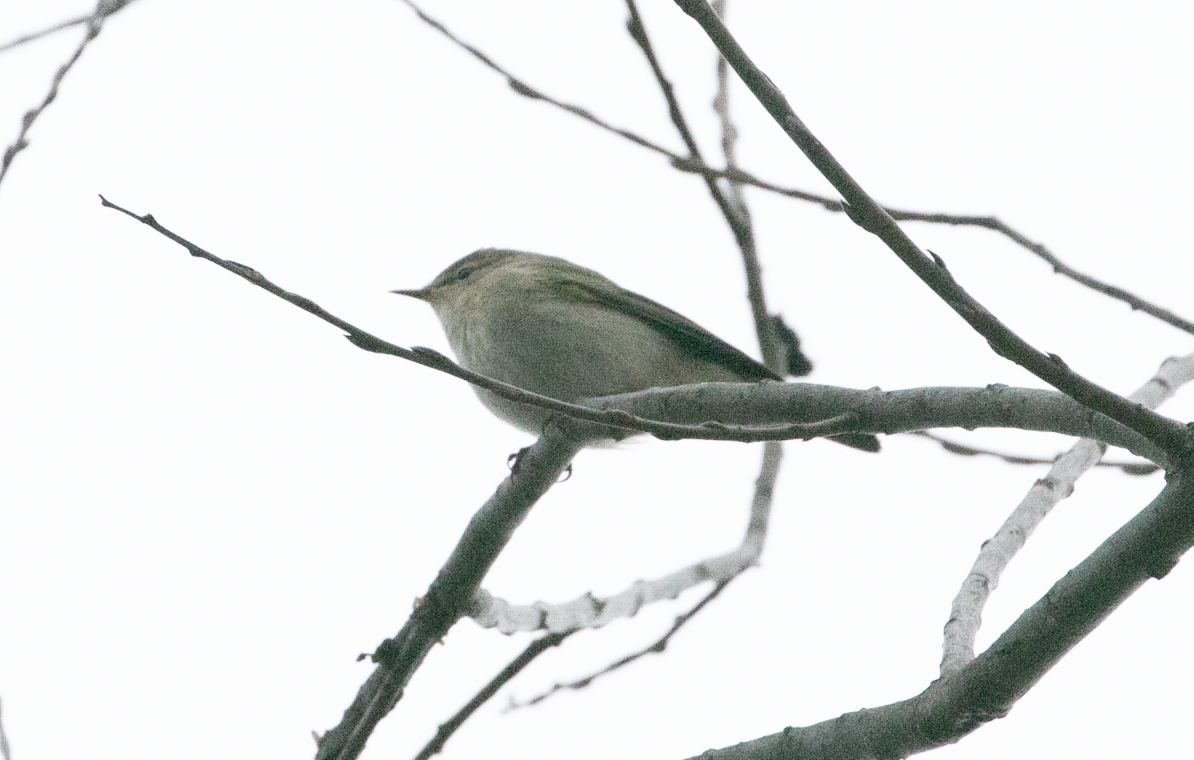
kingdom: Animalia
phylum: Chordata
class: Aves
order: Passeriformes
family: Phylloscopidae
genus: Phylloscopus
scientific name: Phylloscopus collybita
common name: Common chiffchaff
